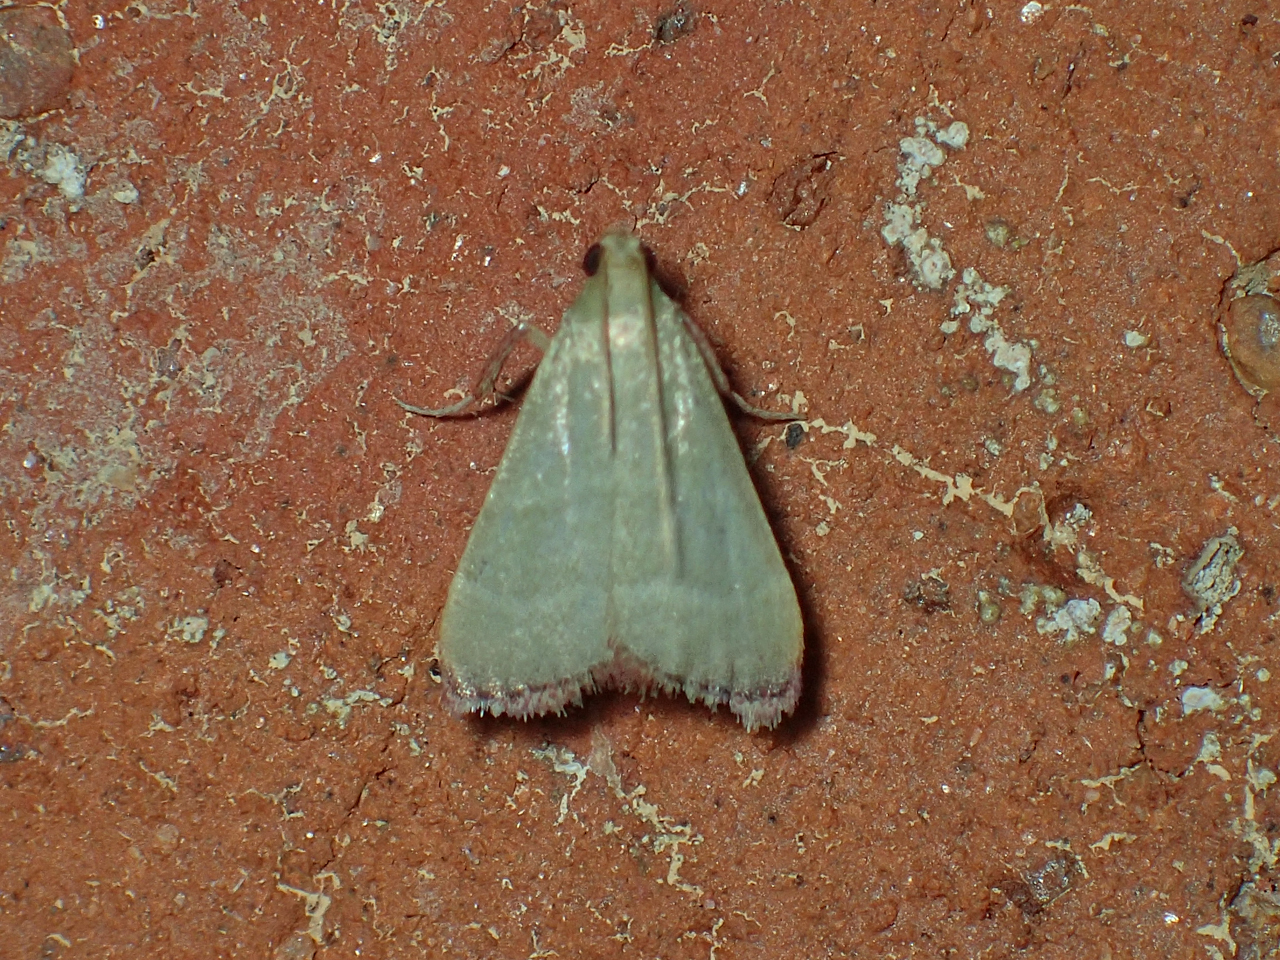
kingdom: Animalia
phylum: Arthropoda
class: Insecta
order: Lepidoptera
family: Pyralidae
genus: Arta
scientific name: Arta olivalis
